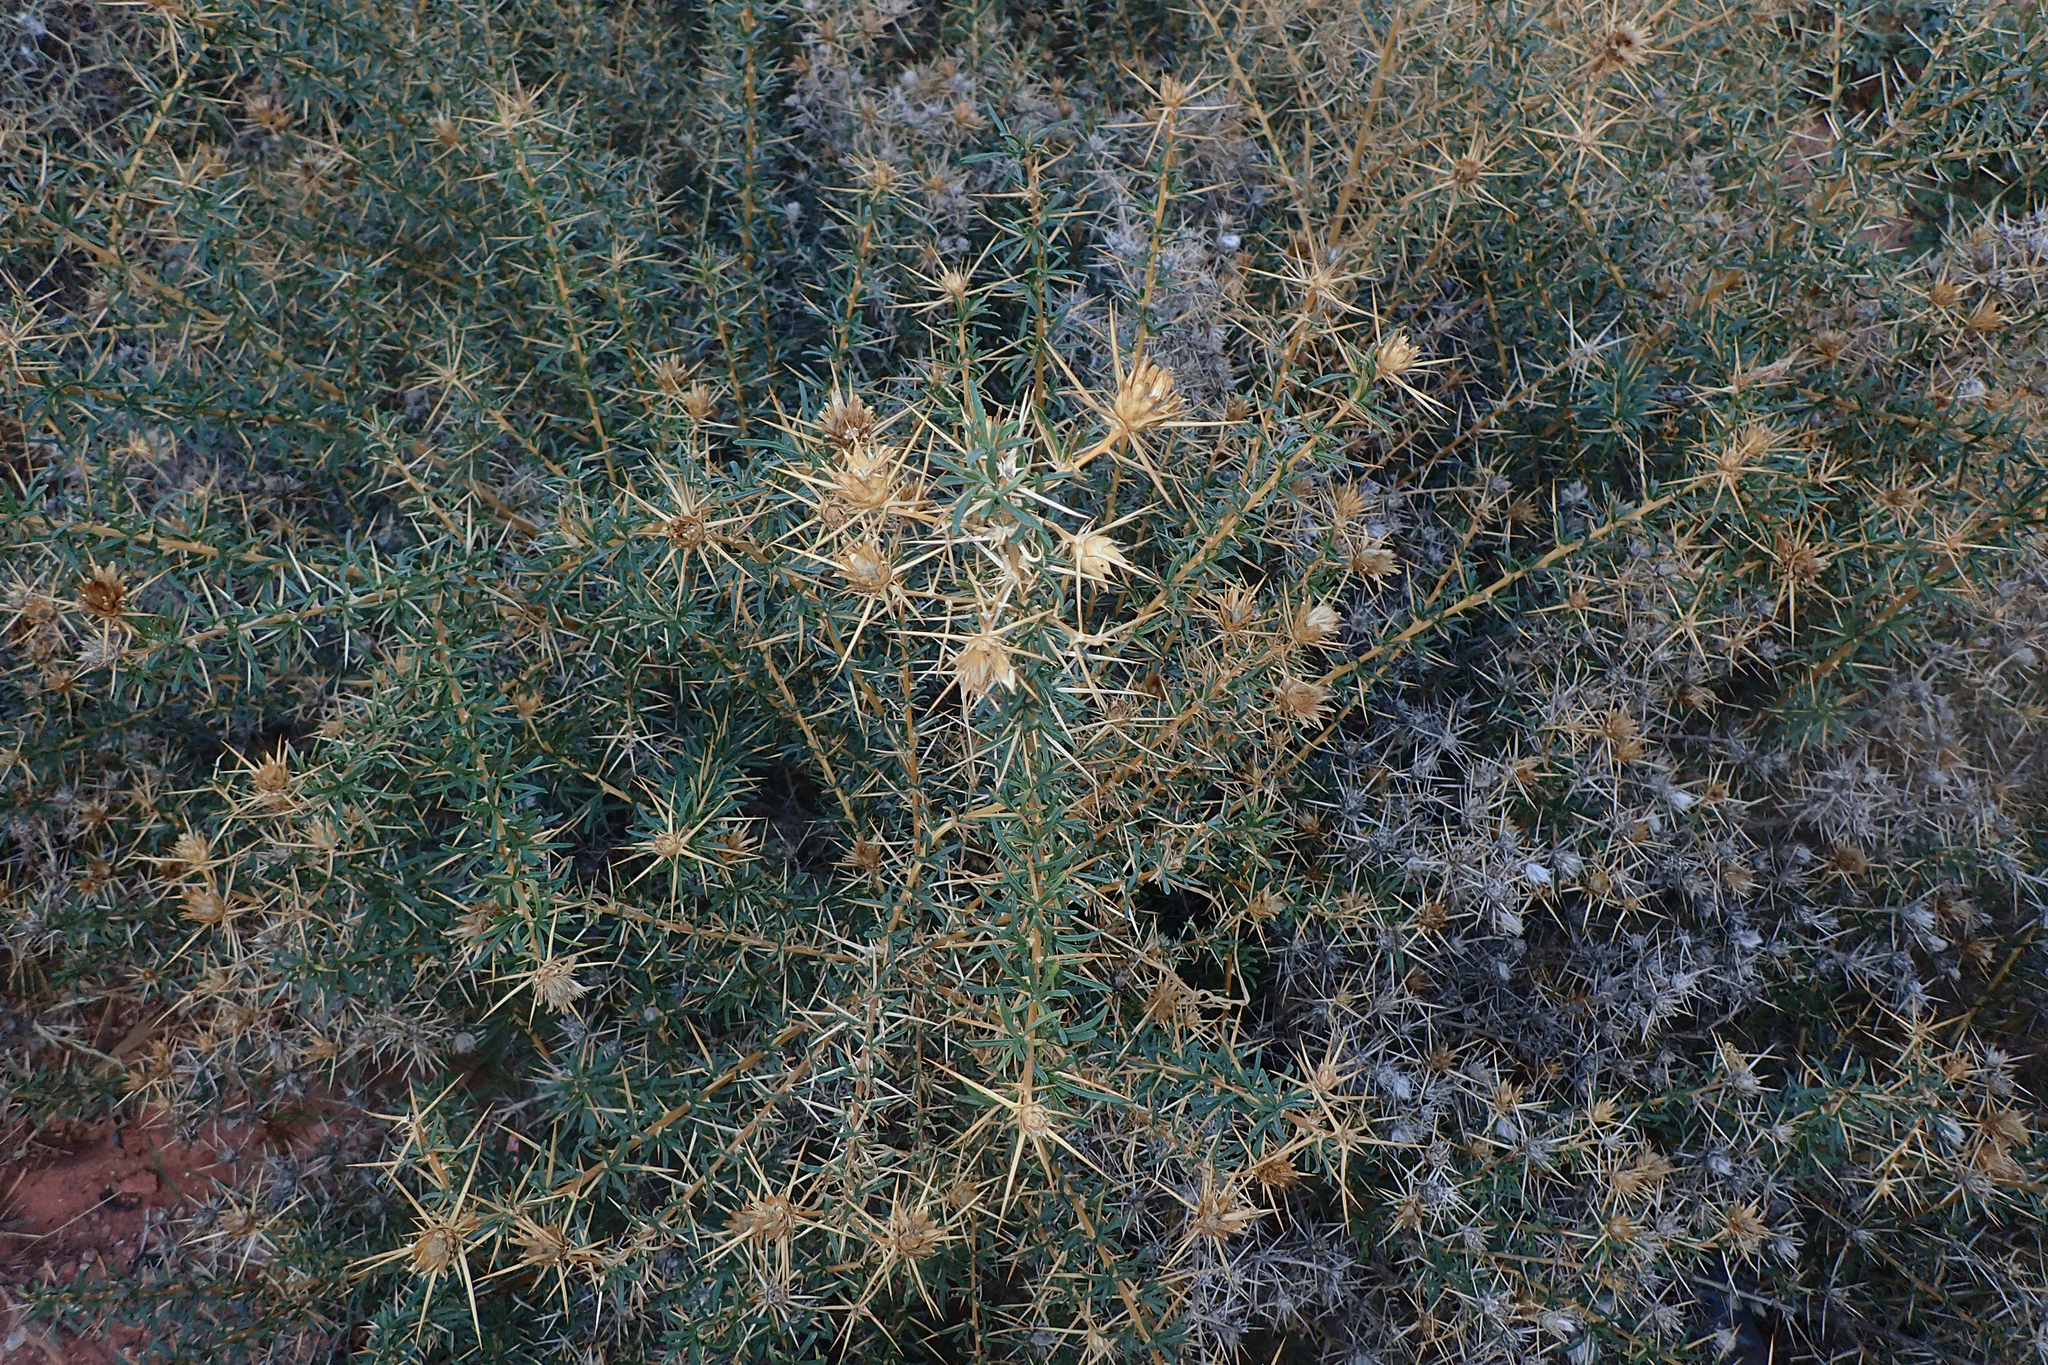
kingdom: Plantae
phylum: Tracheophyta
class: Magnoliopsida
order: Asterales
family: Asteraceae
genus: Phonus
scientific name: Phonus fruticosus
